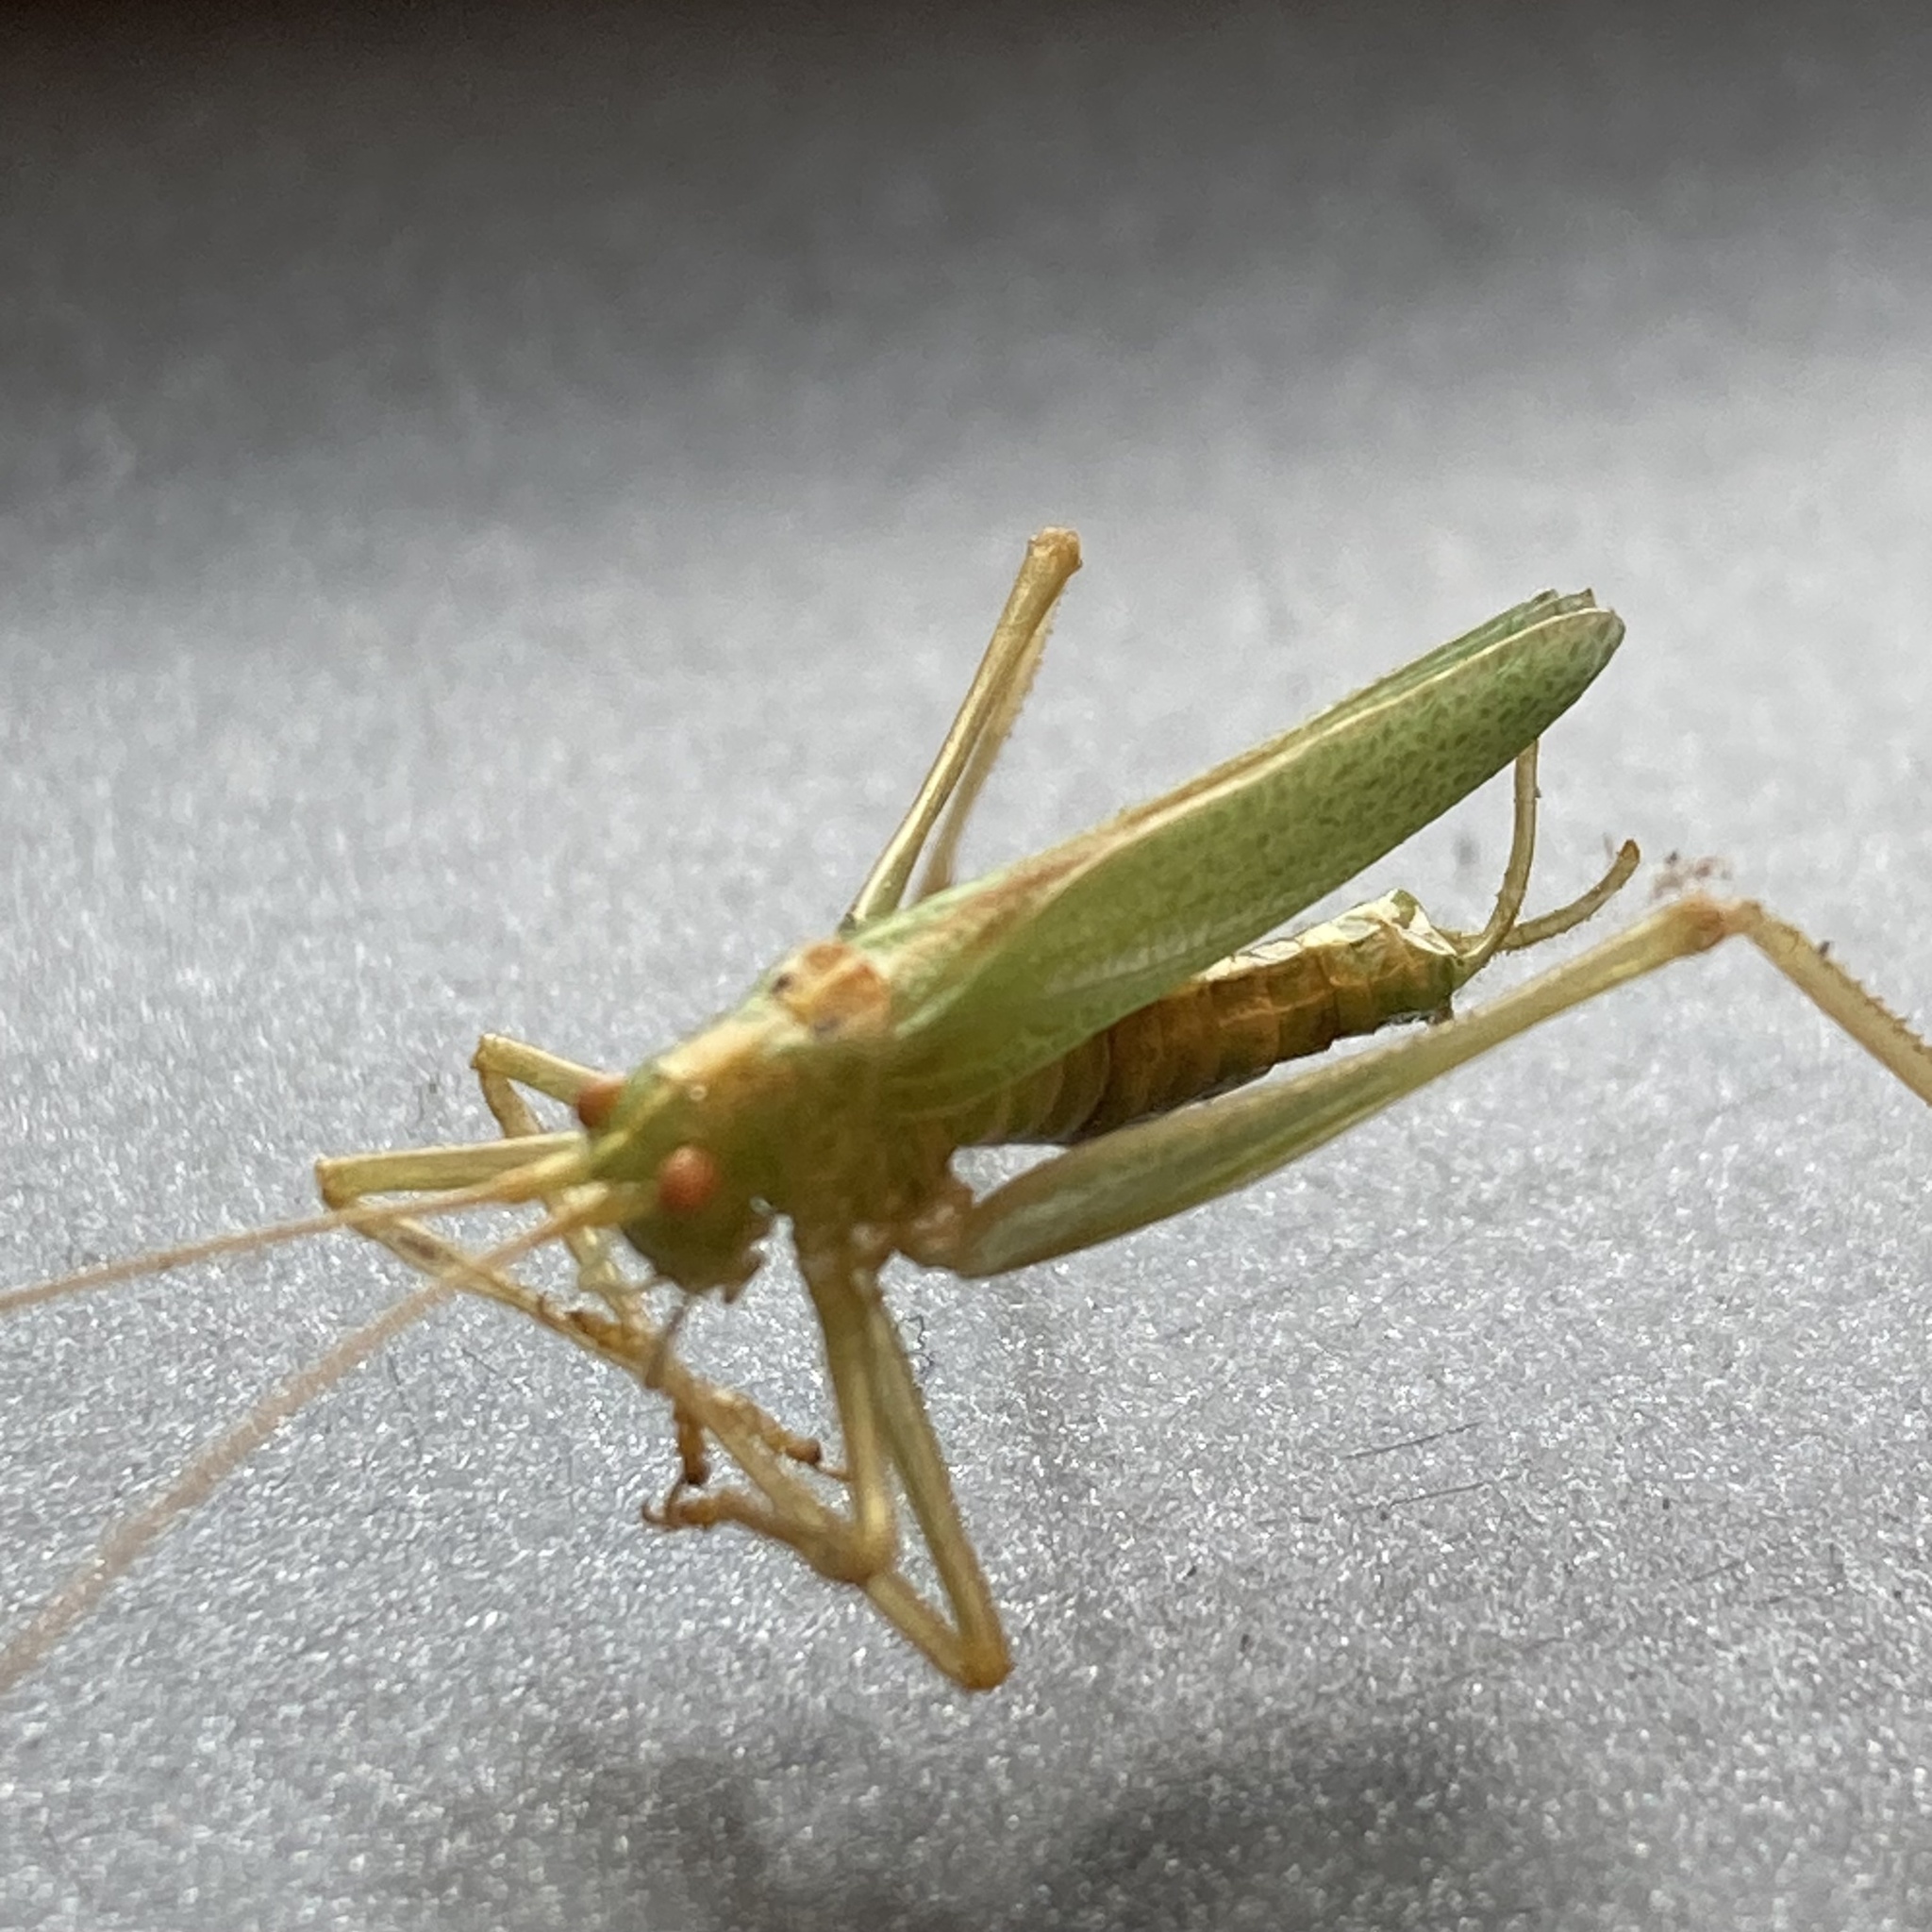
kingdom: Animalia
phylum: Arthropoda
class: Insecta
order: Orthoptera
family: Tettigoniidae
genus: Meconema
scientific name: Meconema thalassinum
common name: Oak bush-cricket
